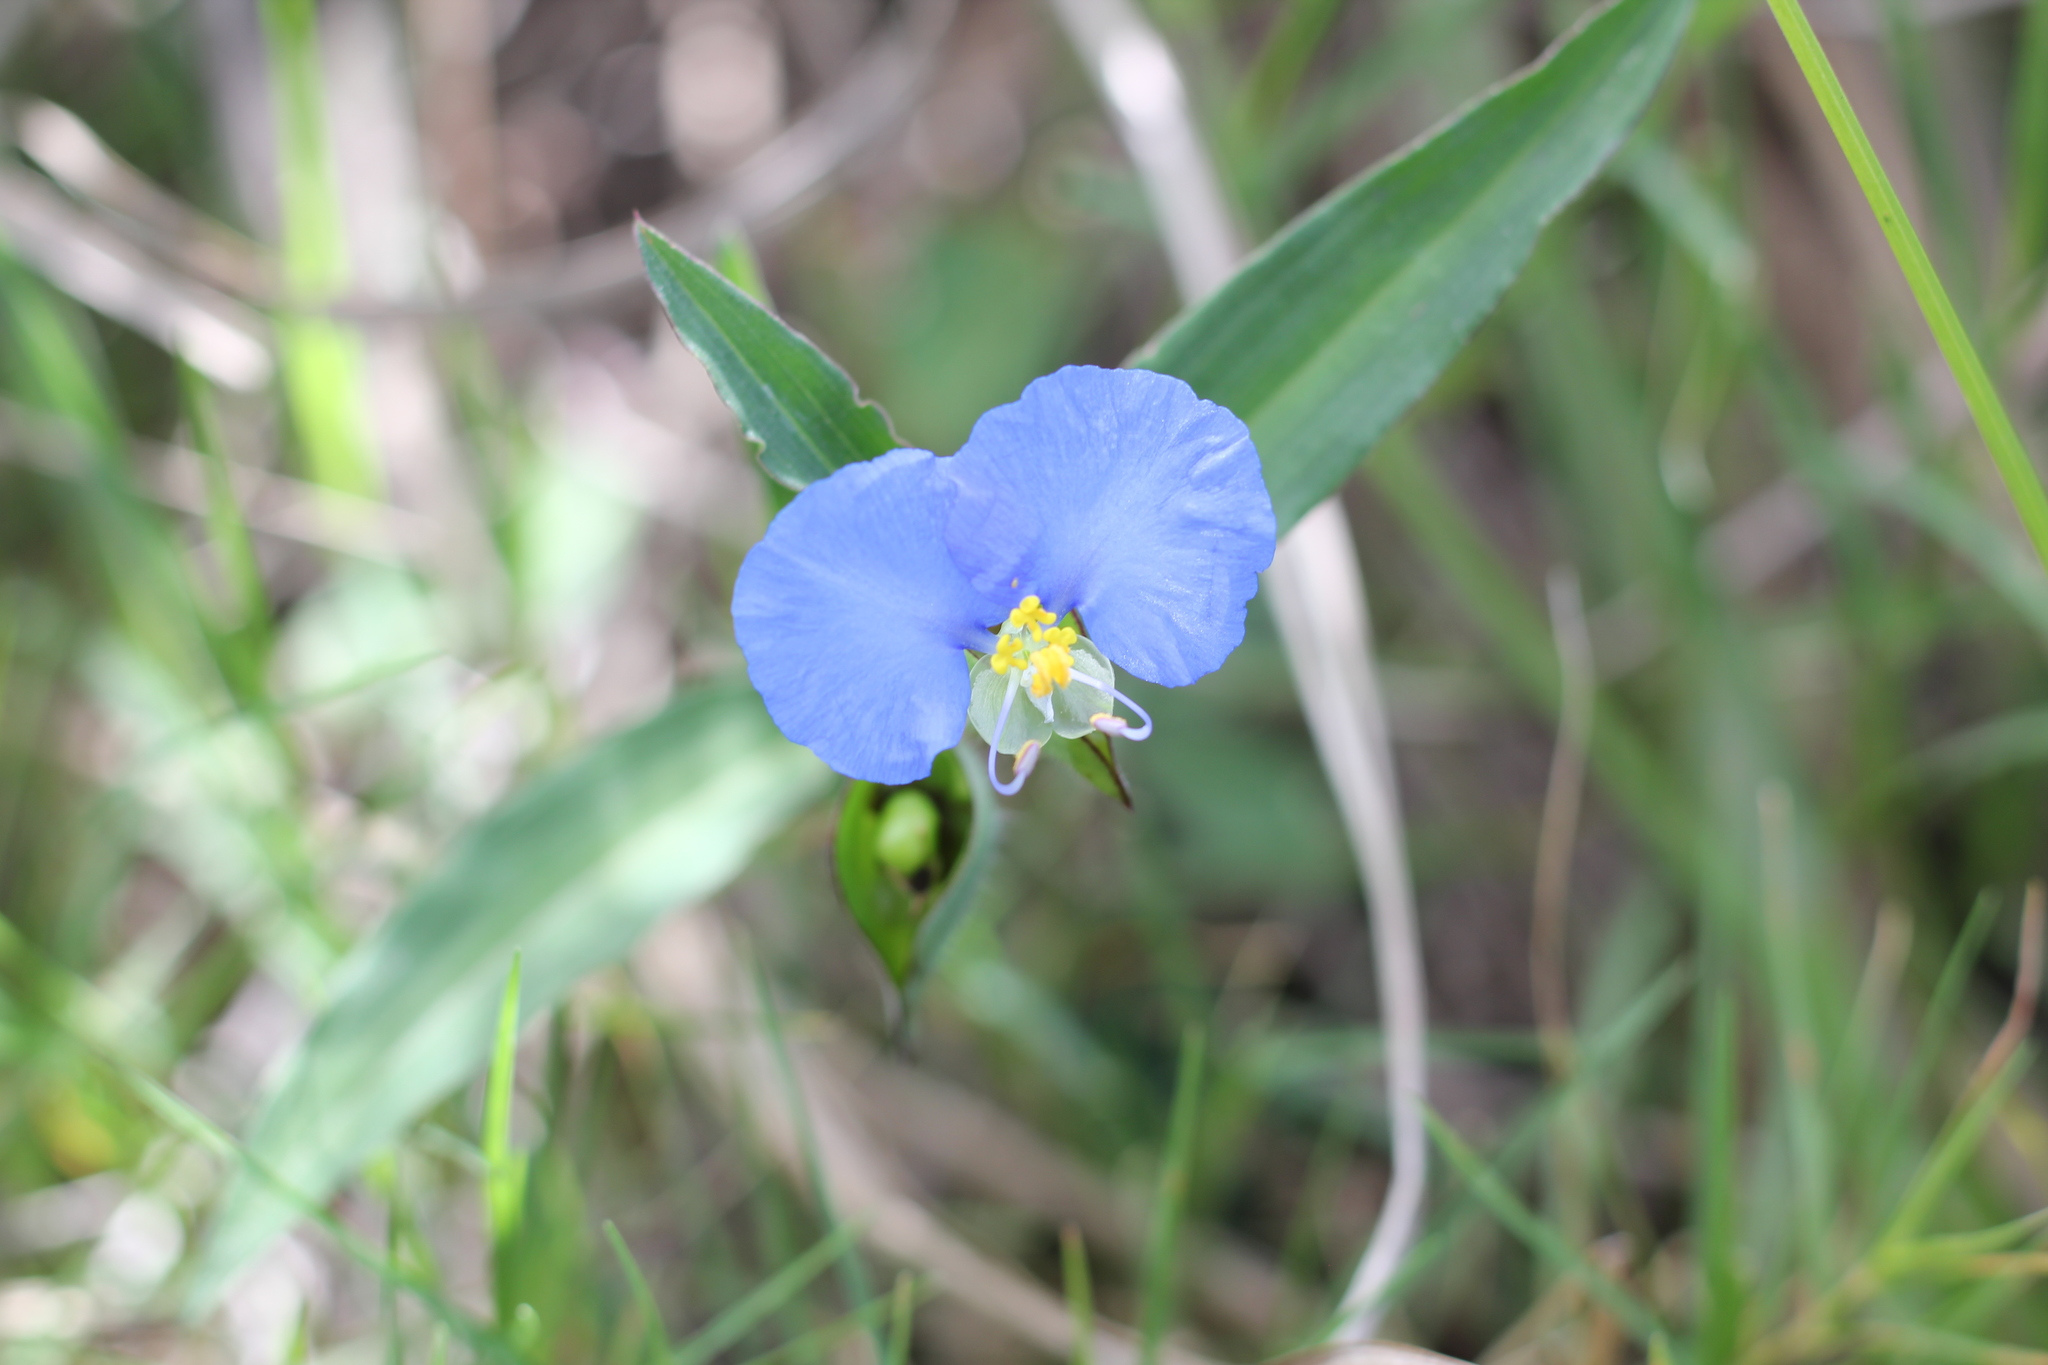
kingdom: Plantae
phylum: Tracheophyta
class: Liliopsida
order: Commelinales
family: Commelinaceae
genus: Commelina
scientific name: Commelina erecta
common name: Blousel blommetjie
